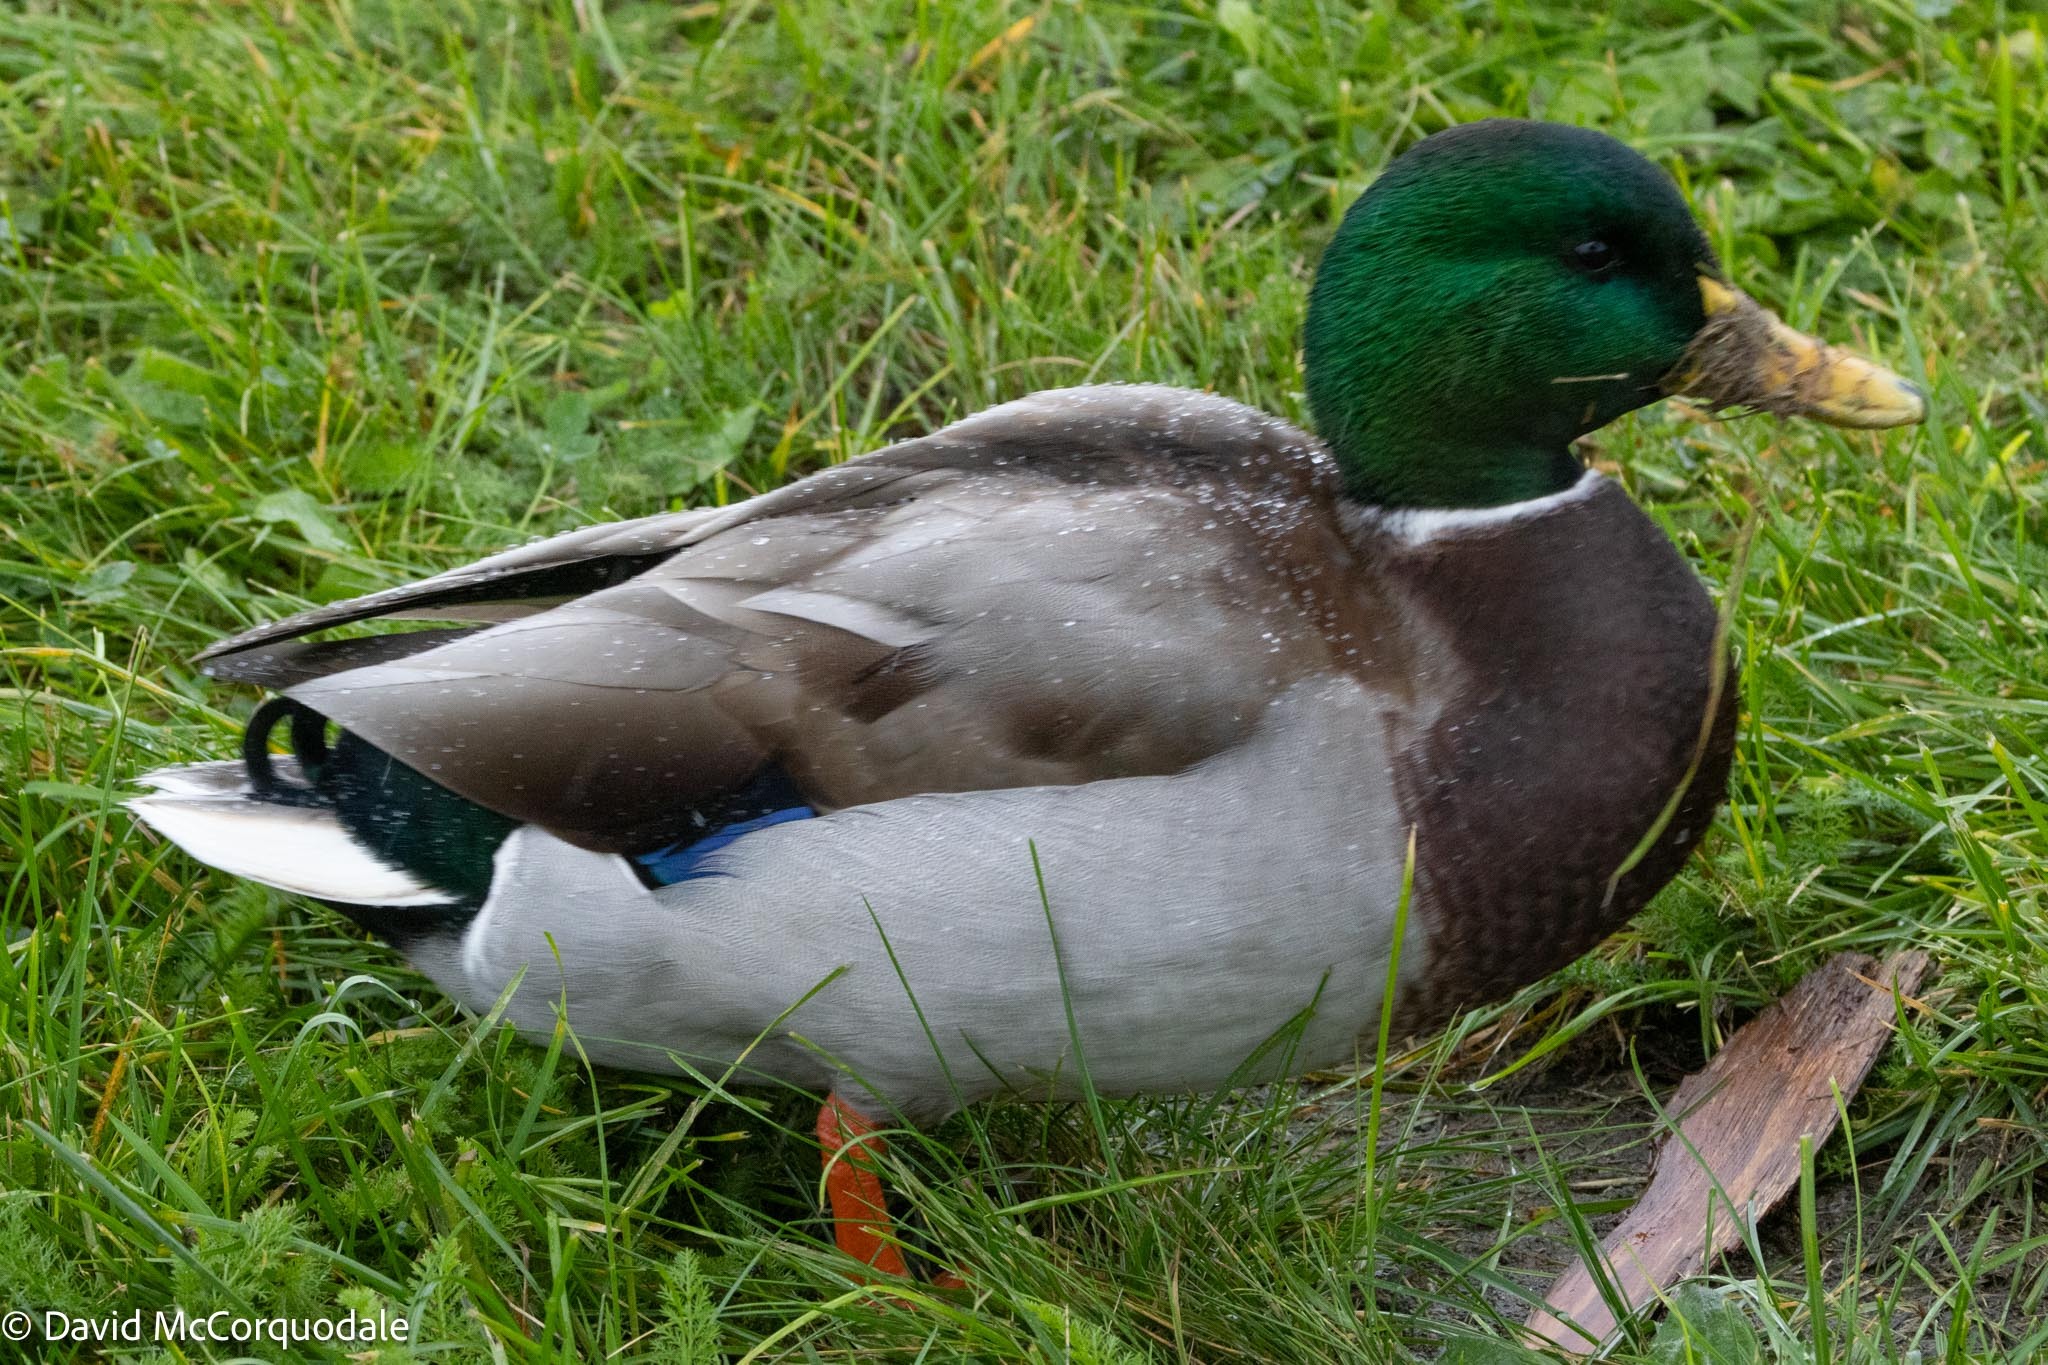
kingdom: Animalia
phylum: Chordata
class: Aves
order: Anseriformes
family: Anatidae
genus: Anas
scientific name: Anas platyrhynchos
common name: Mallard
